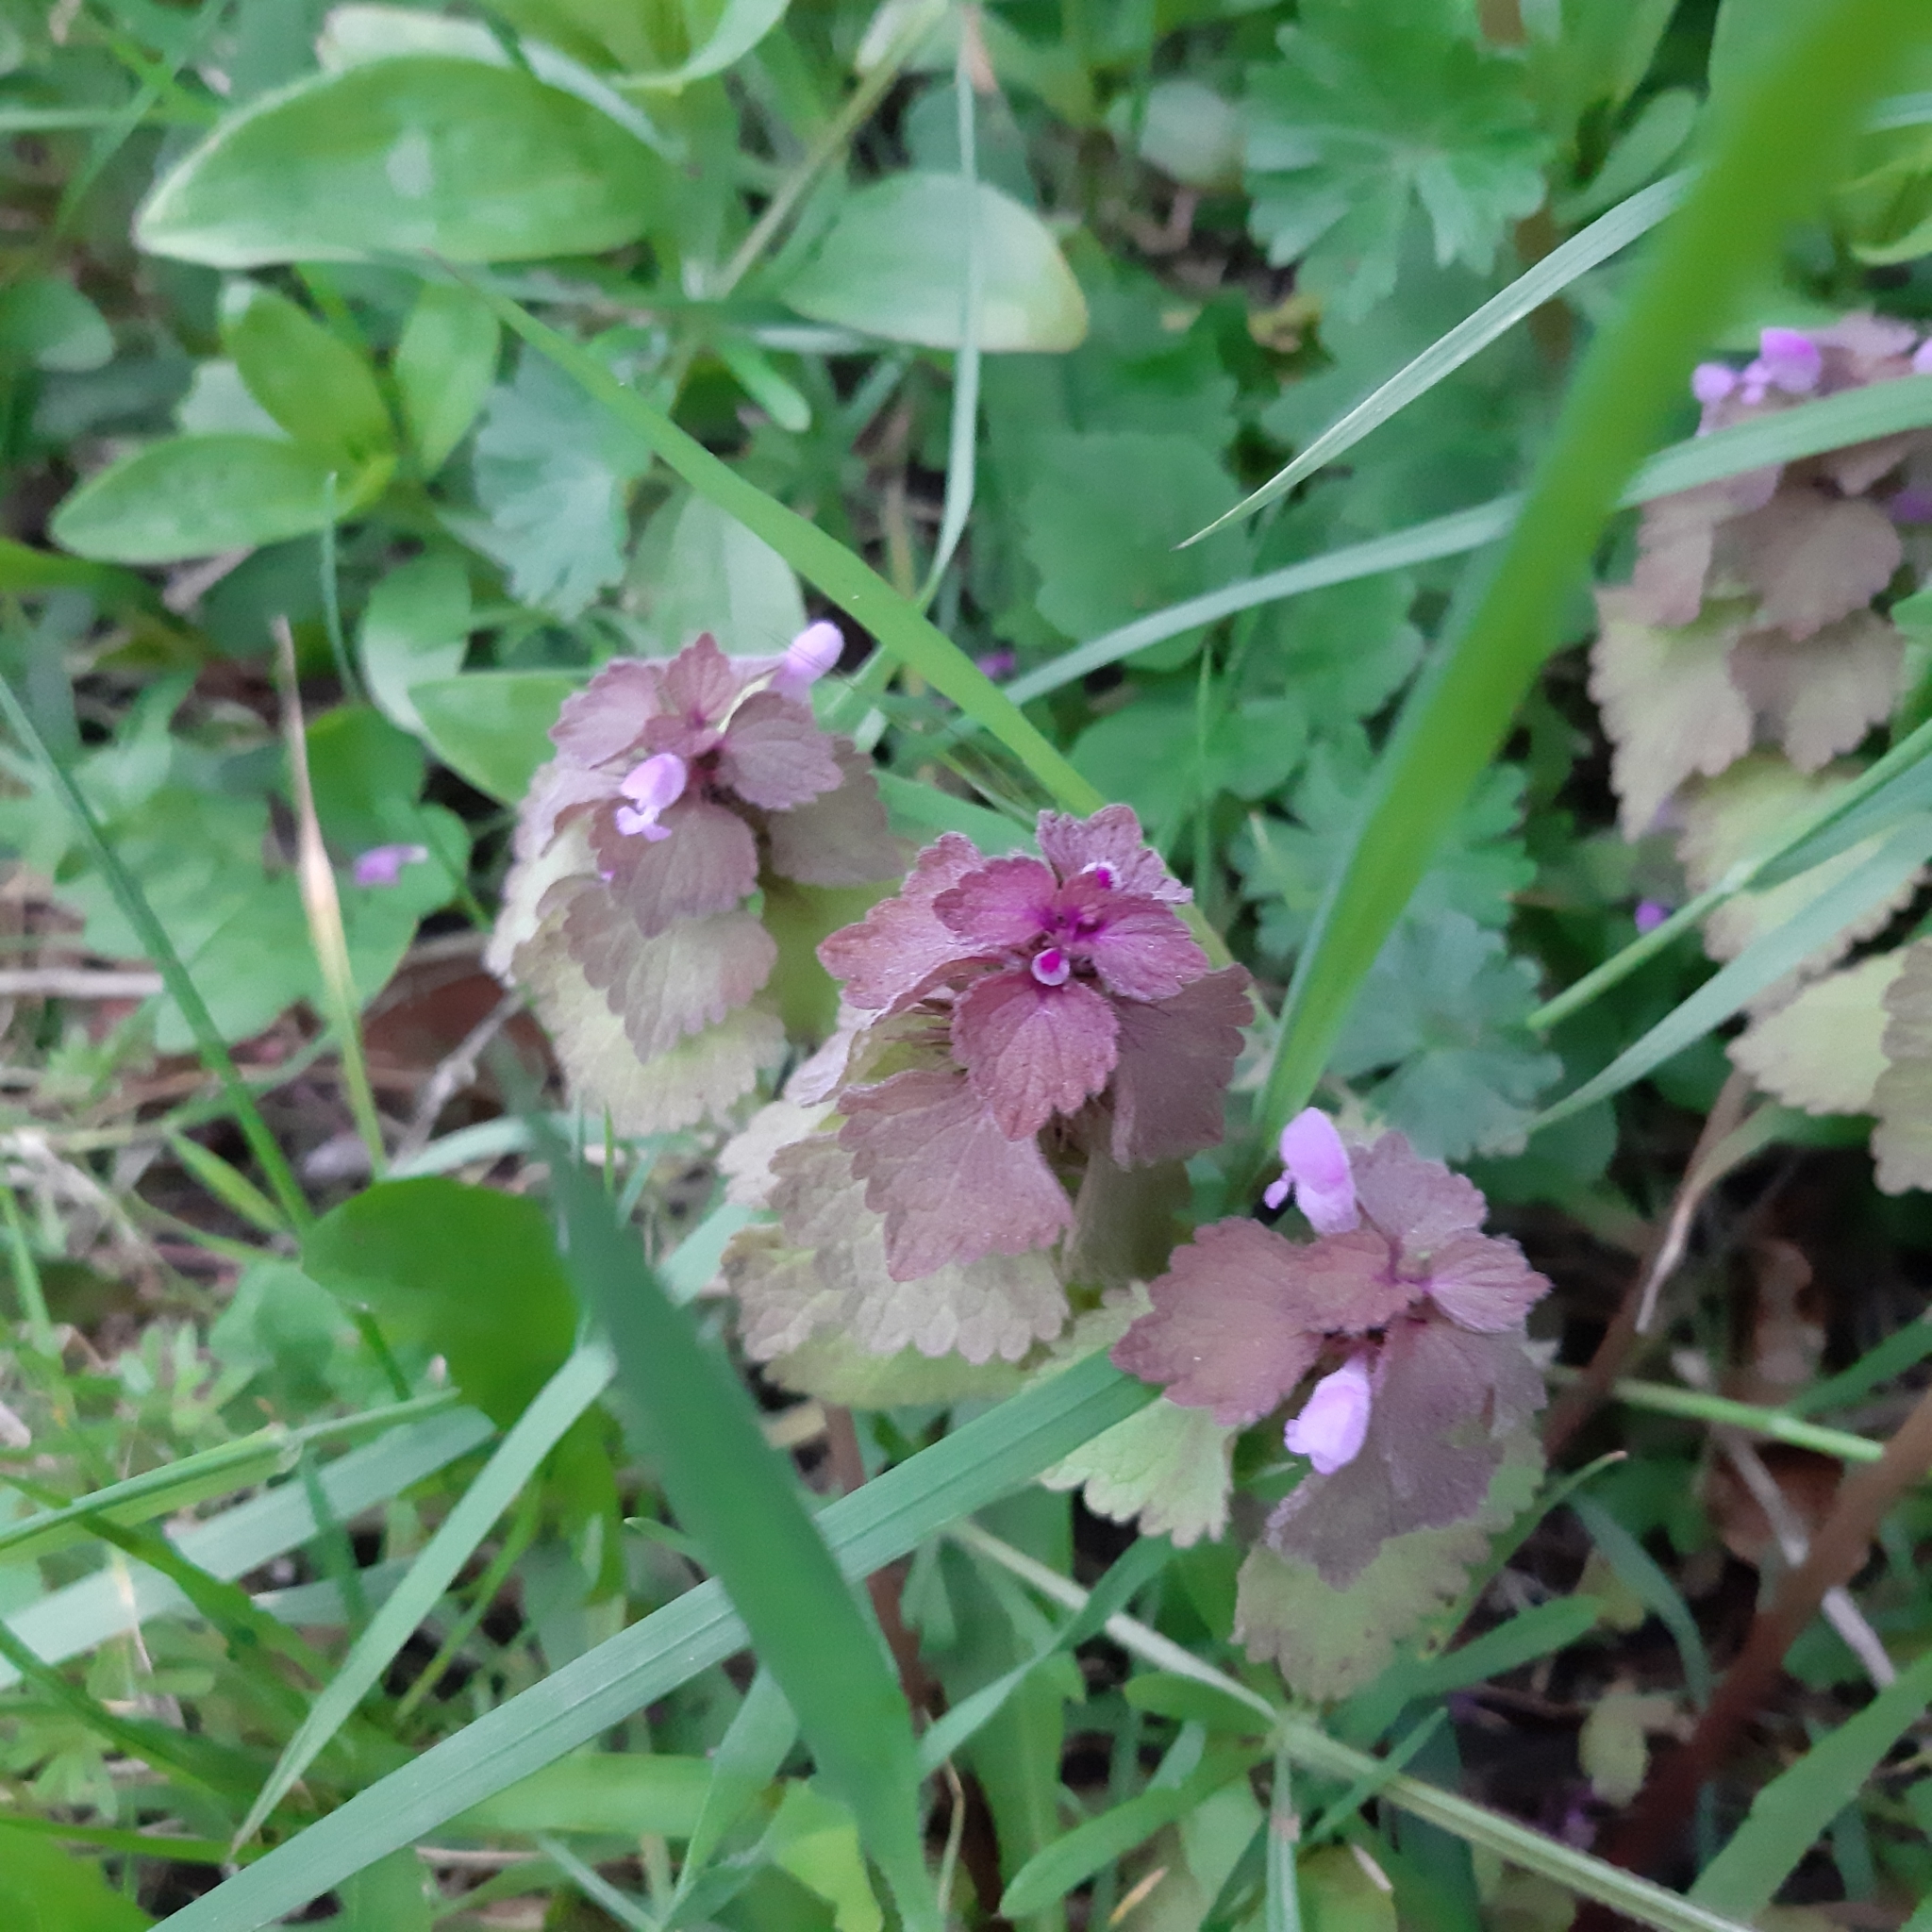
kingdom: Plantae
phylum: Tracheophyta
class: Magnoliopsida
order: Lamiales
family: Lamiaceae
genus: Lamium
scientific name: Lamium purpureum
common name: Red dead-nettle
